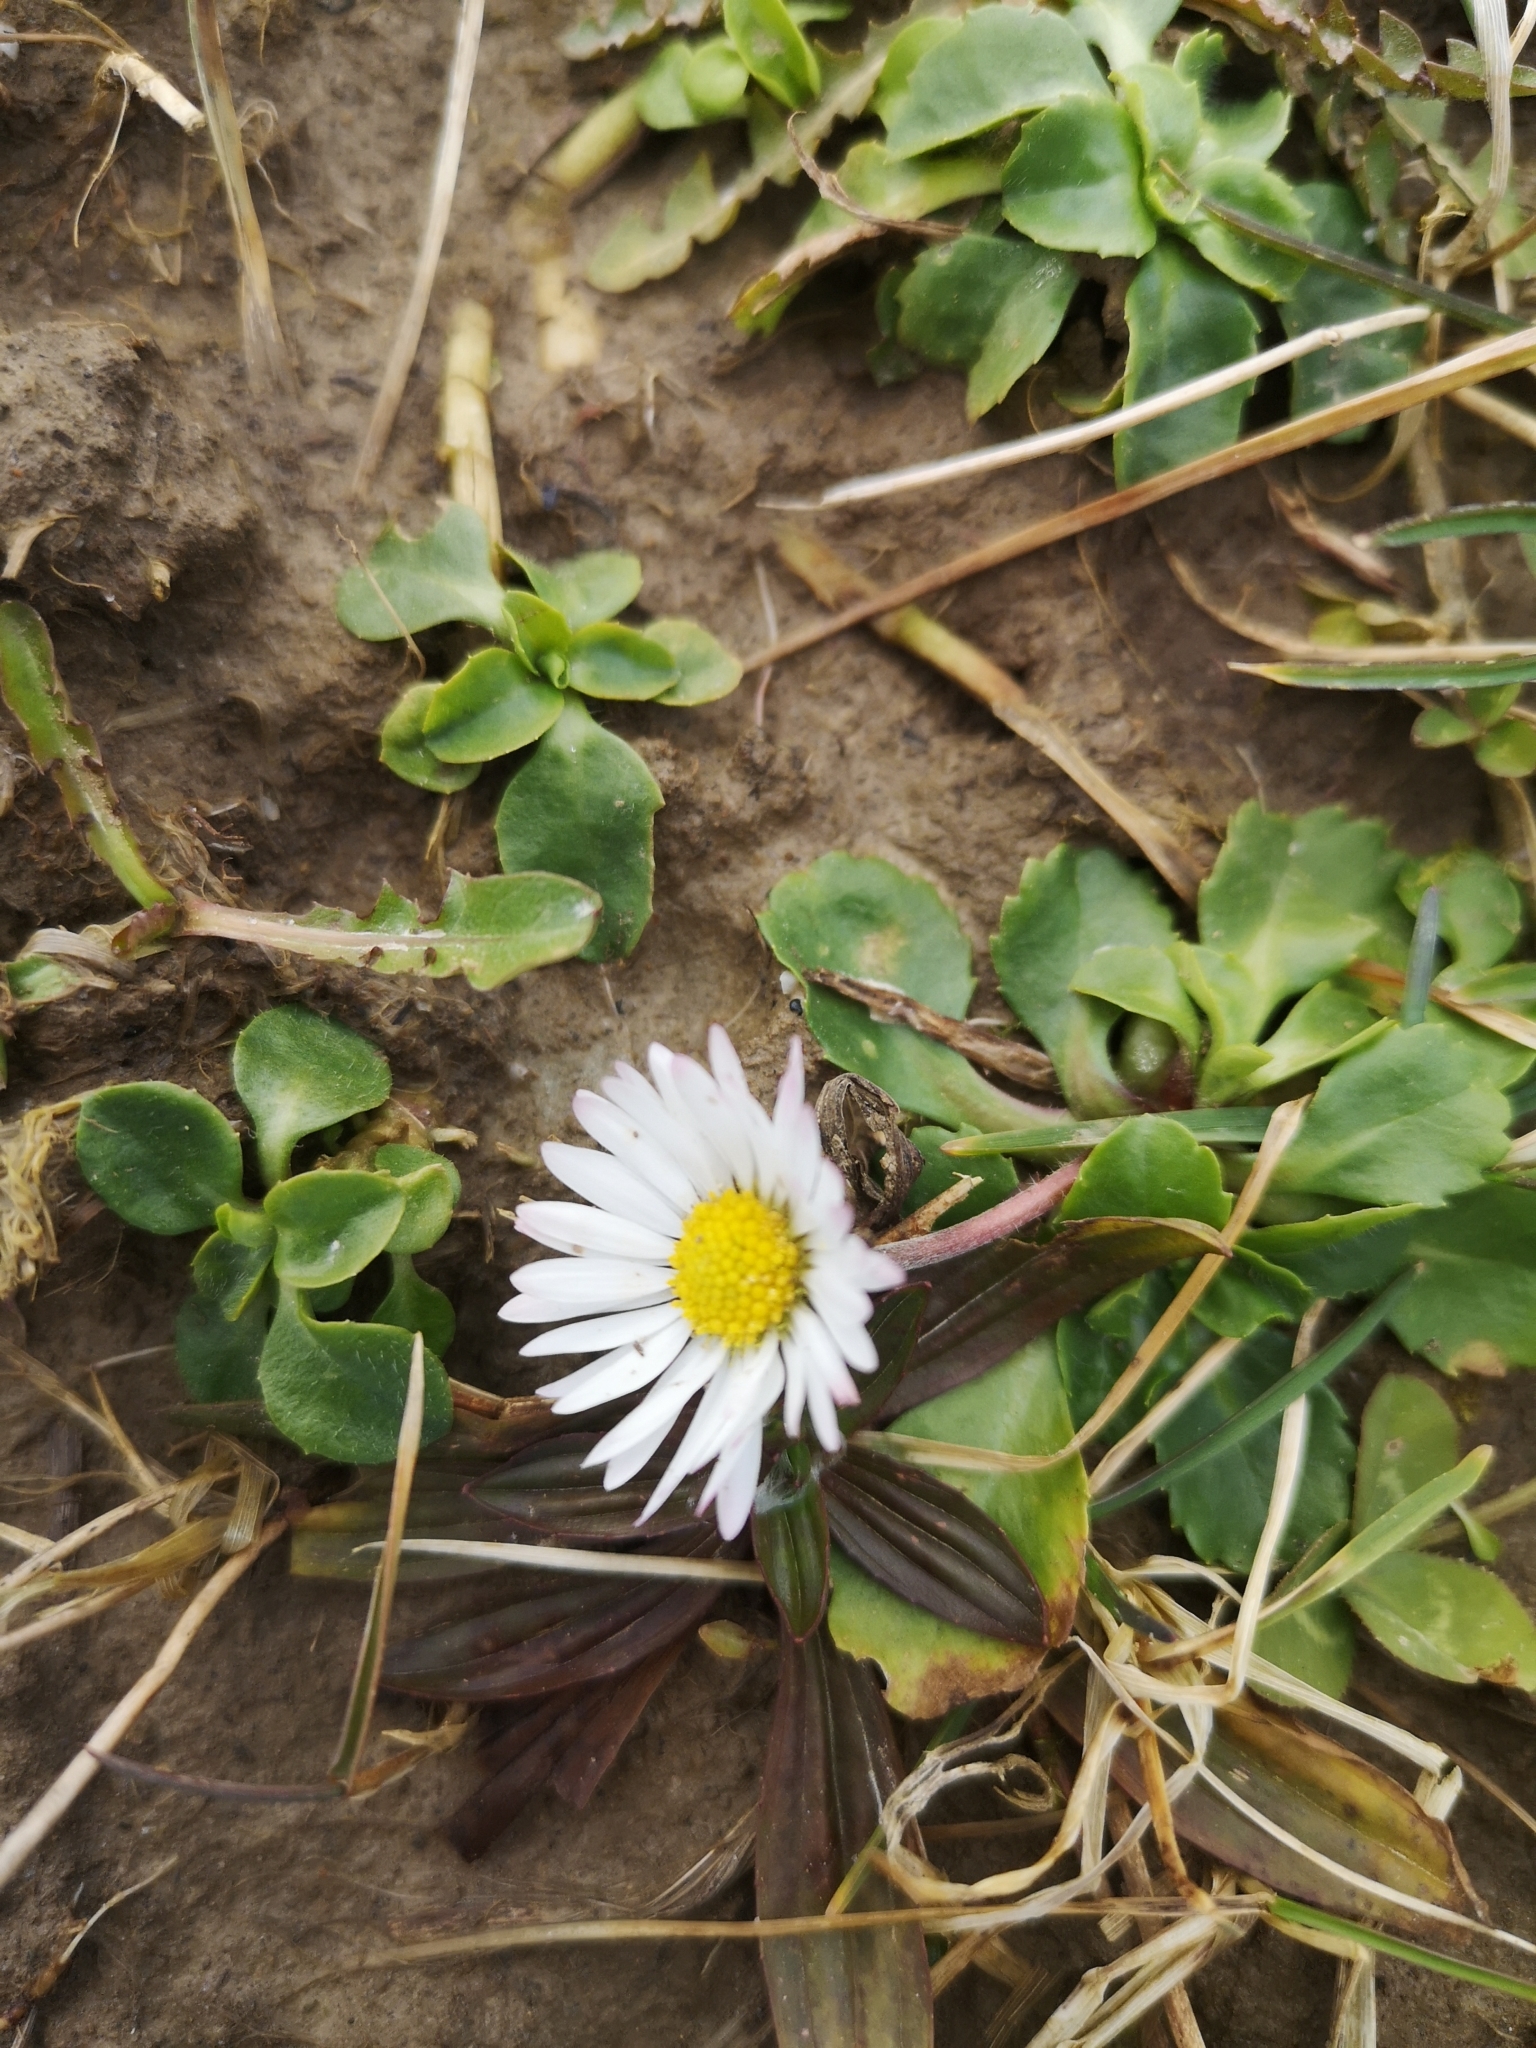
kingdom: Plantae
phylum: Tracheophyta
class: Magnoliopsida
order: Asterales
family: Asteraceae
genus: Bellis
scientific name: Bellis perennis
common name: Lawndaisy
